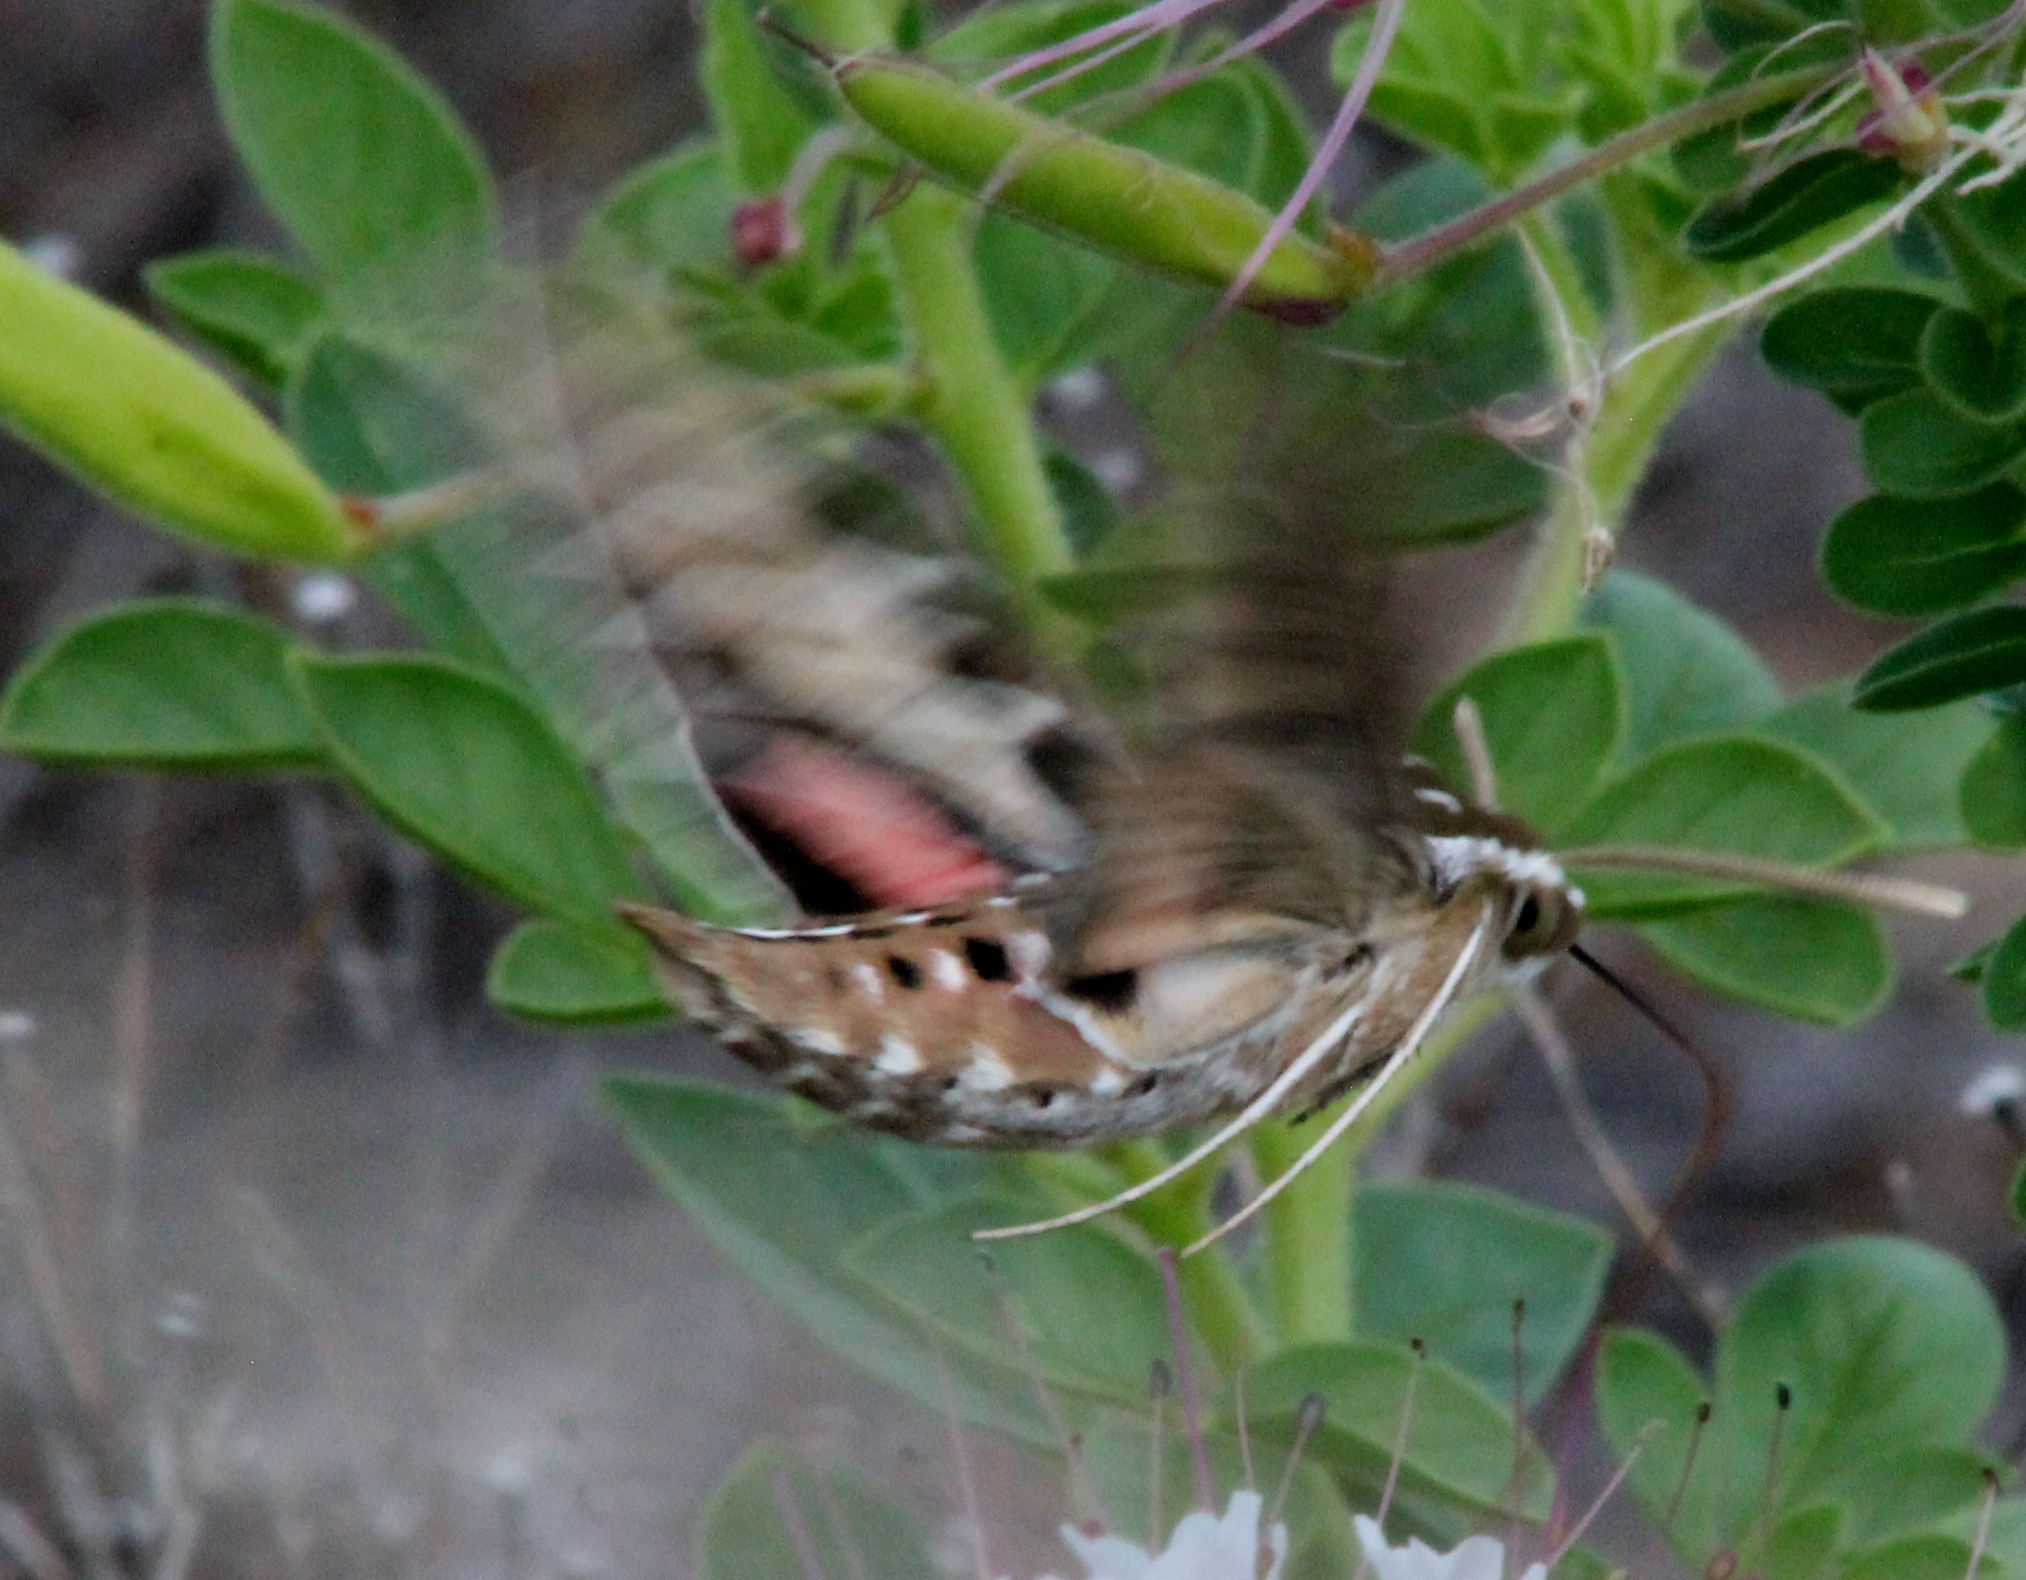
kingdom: Animalia
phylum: Arthropoda
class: Insecta
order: Lepidoptera
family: Sphingidae
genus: Hyles
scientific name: Hyles lineata
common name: White-lined sphinx
